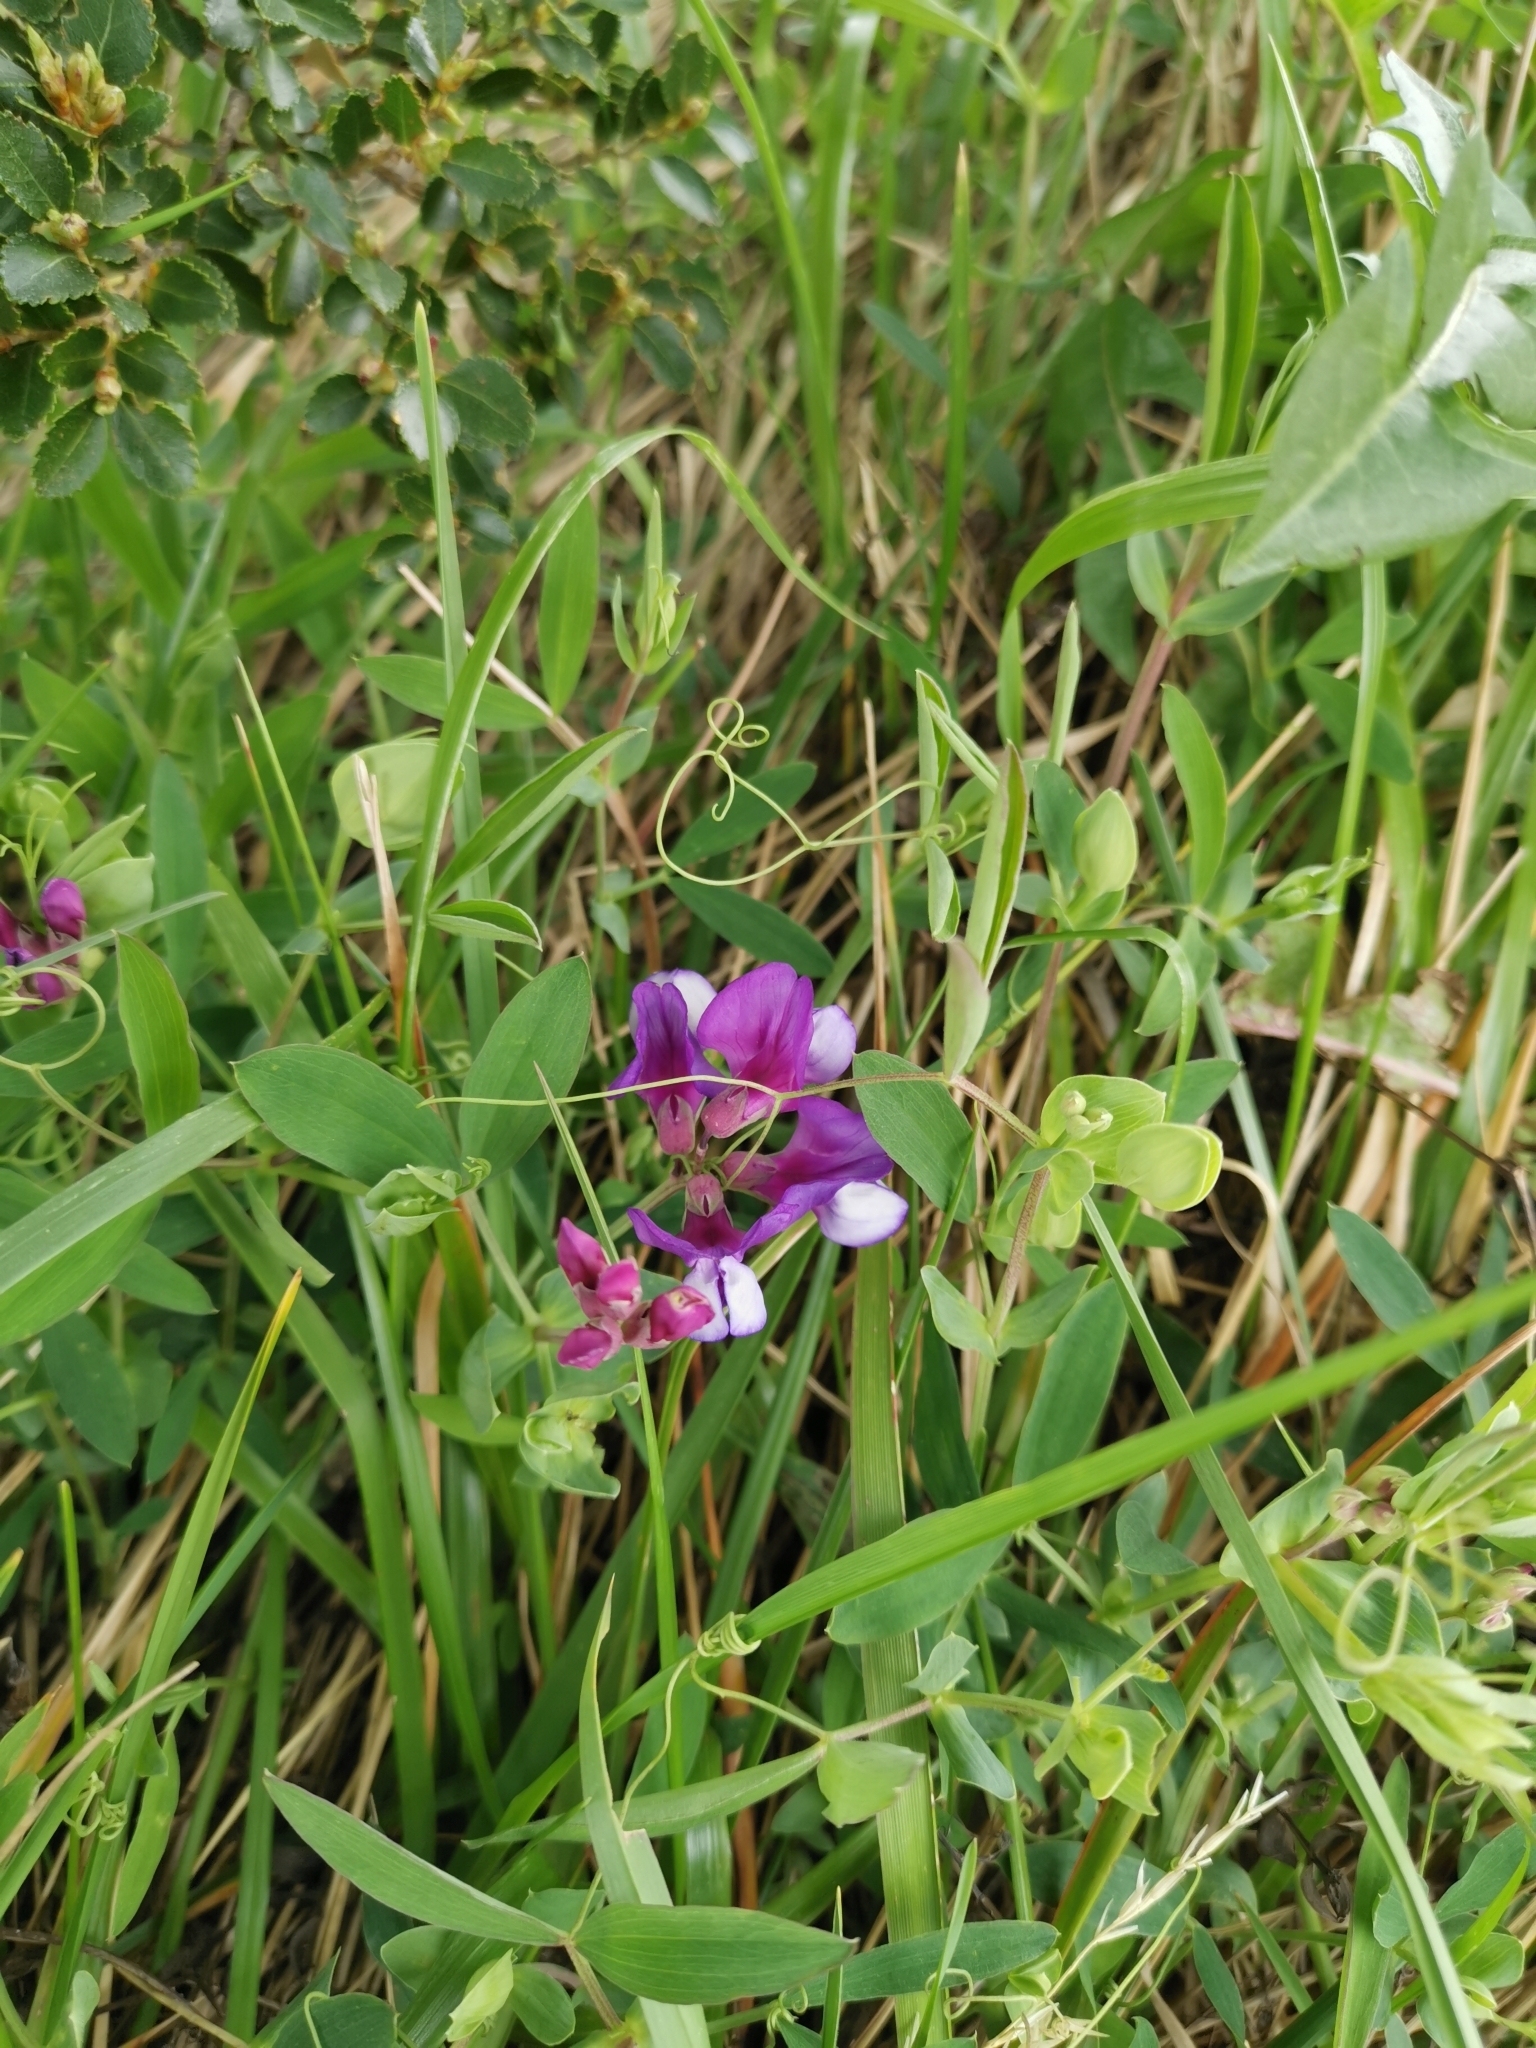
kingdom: Plantae
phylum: Tracheophyta
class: Magnoliopsida
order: Fabales
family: Fabaceae
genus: Lathyrus
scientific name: Lathyrus magellanicus
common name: Lord anson's pea
